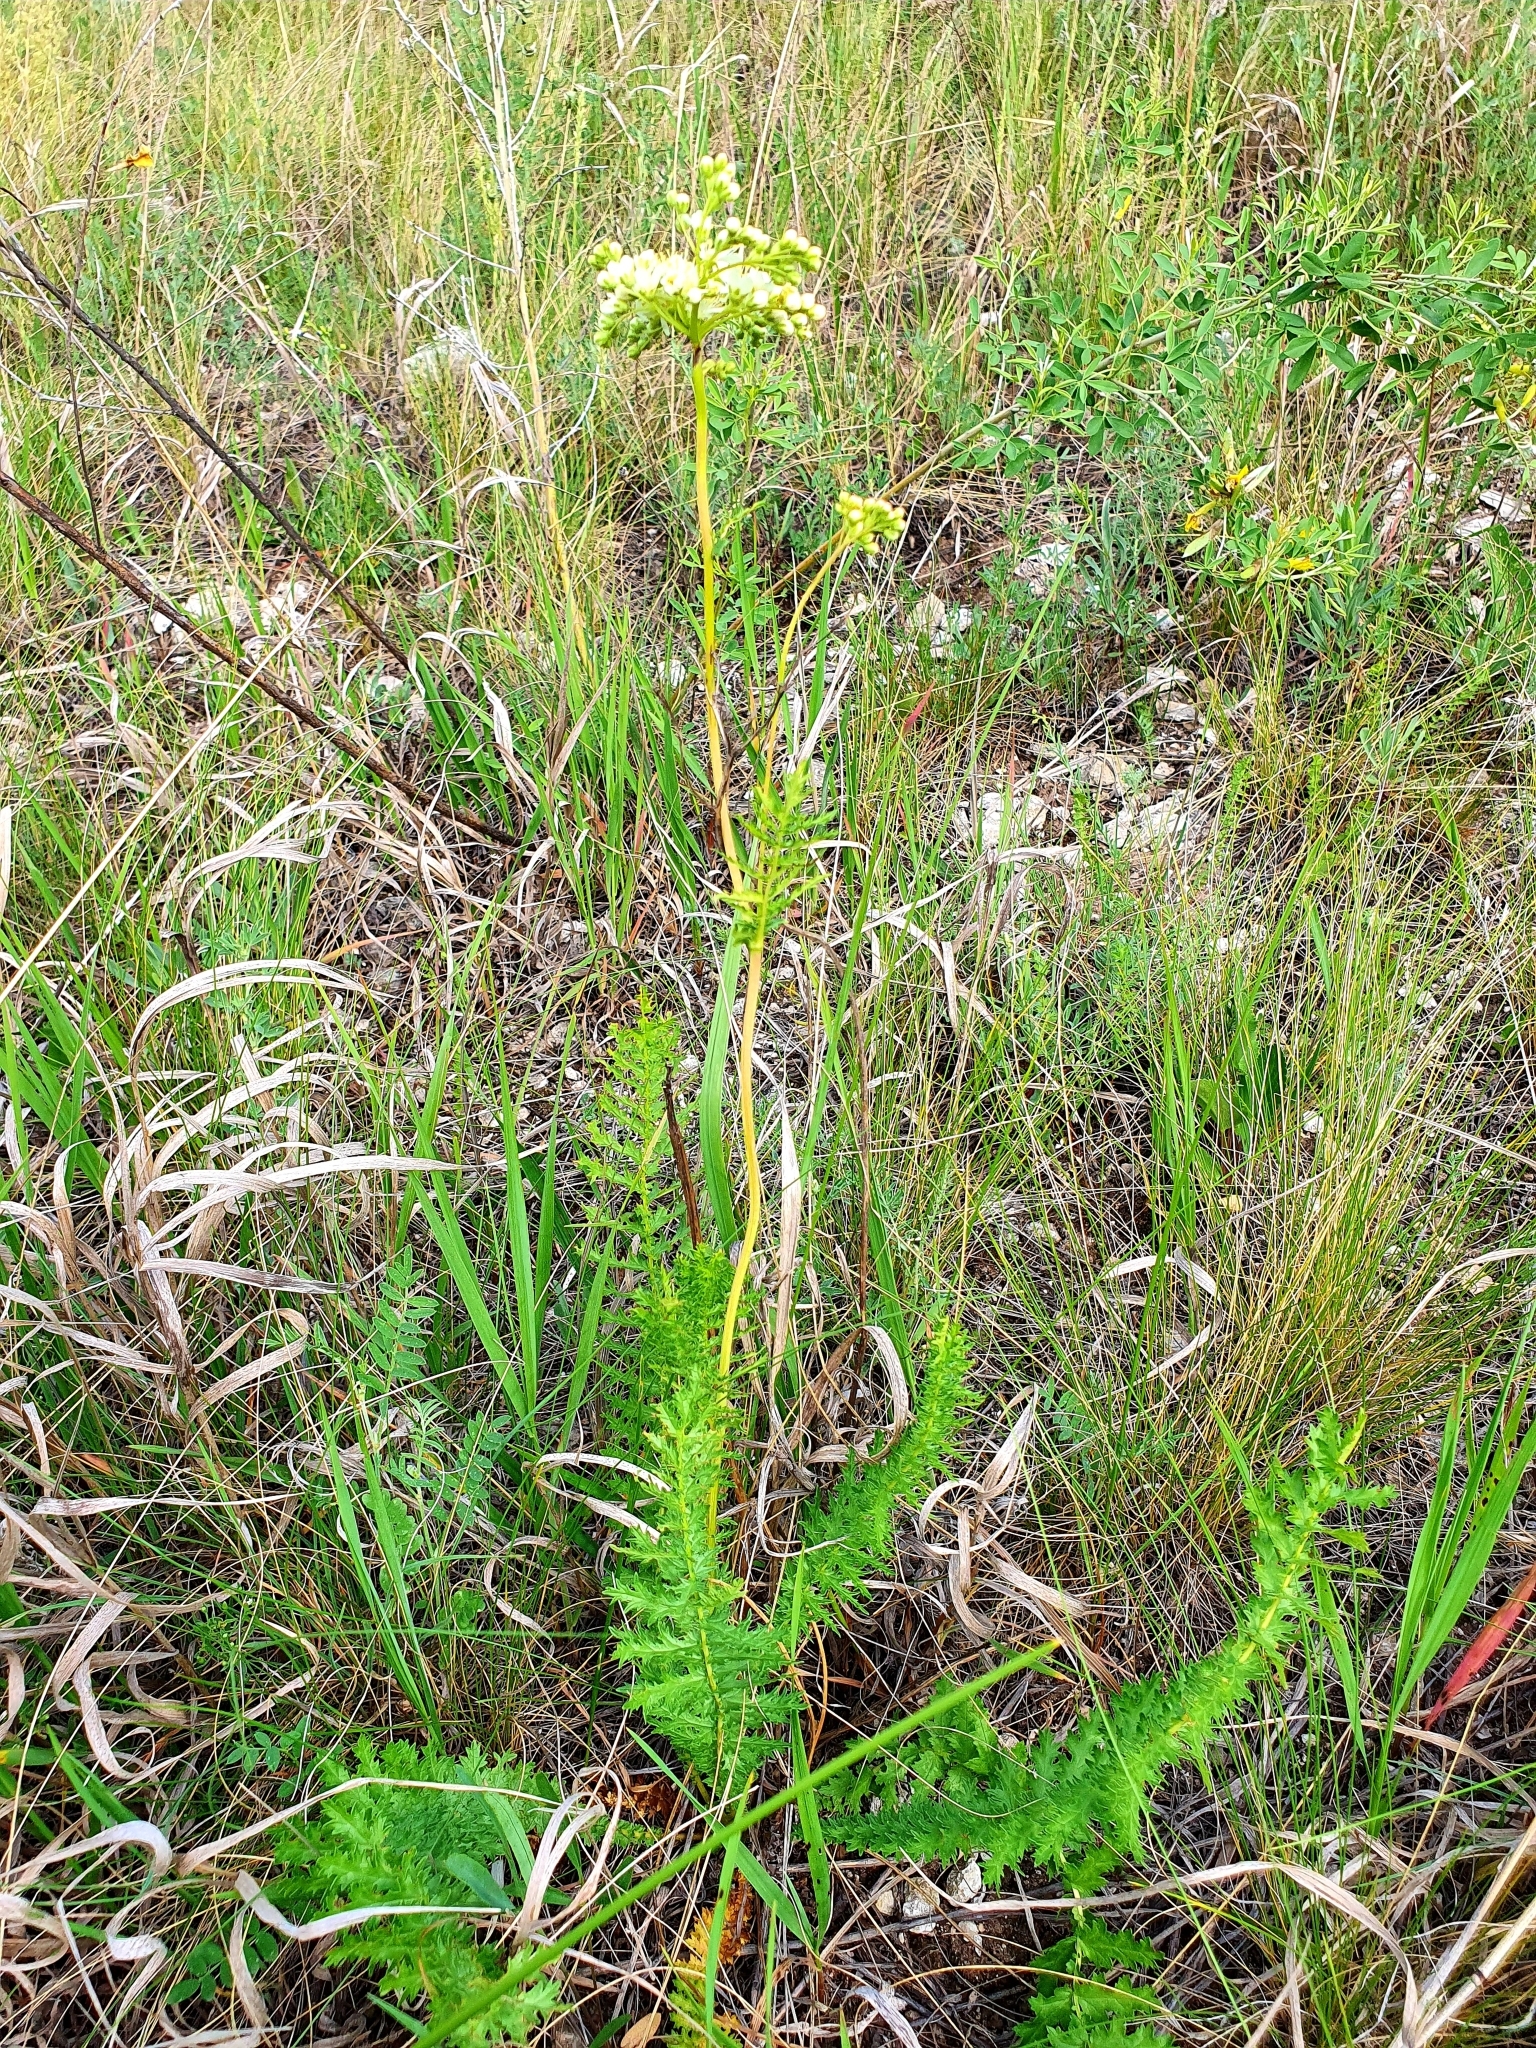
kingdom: Plantae
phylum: Tracheophyta
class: Magnoliopsida
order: Rosales
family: Rosaceae
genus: Filipendula
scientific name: Filipendula vulgaris
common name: Dropwort
